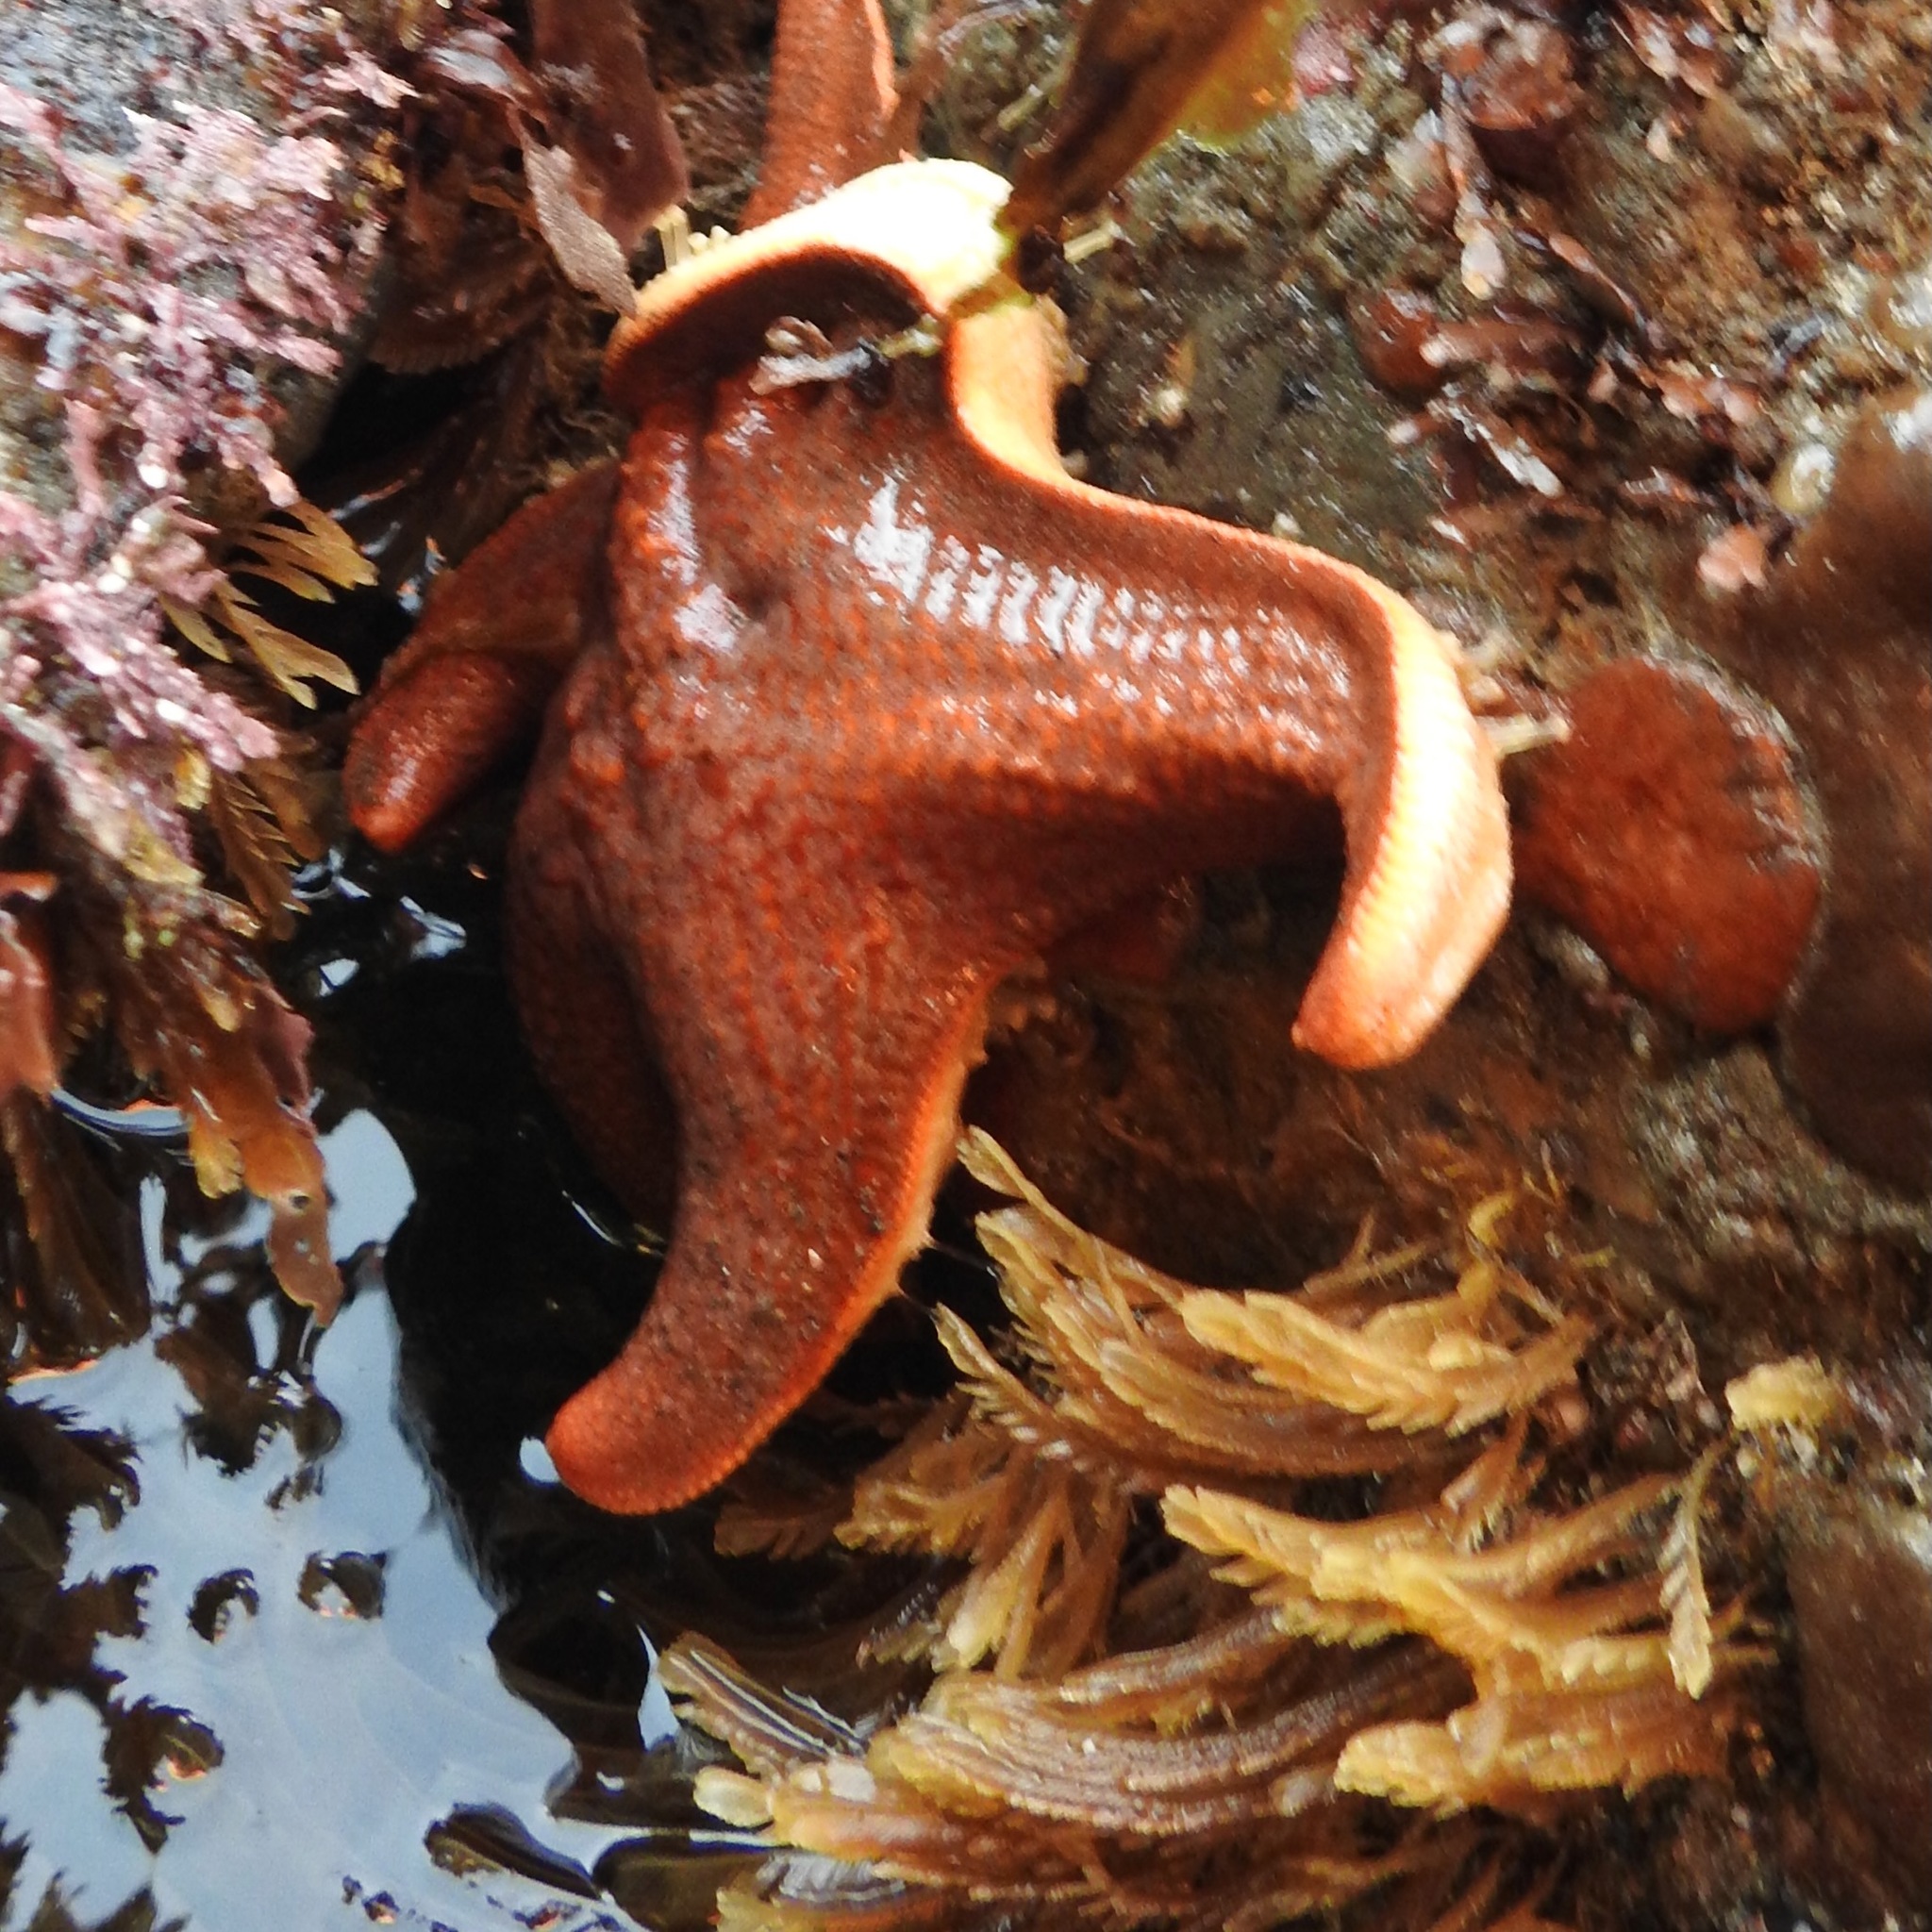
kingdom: Animalia
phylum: Echinodermata
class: Asteroidea
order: Valvatida
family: Asterinidae
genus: Patiria
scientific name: Patiria miniata
